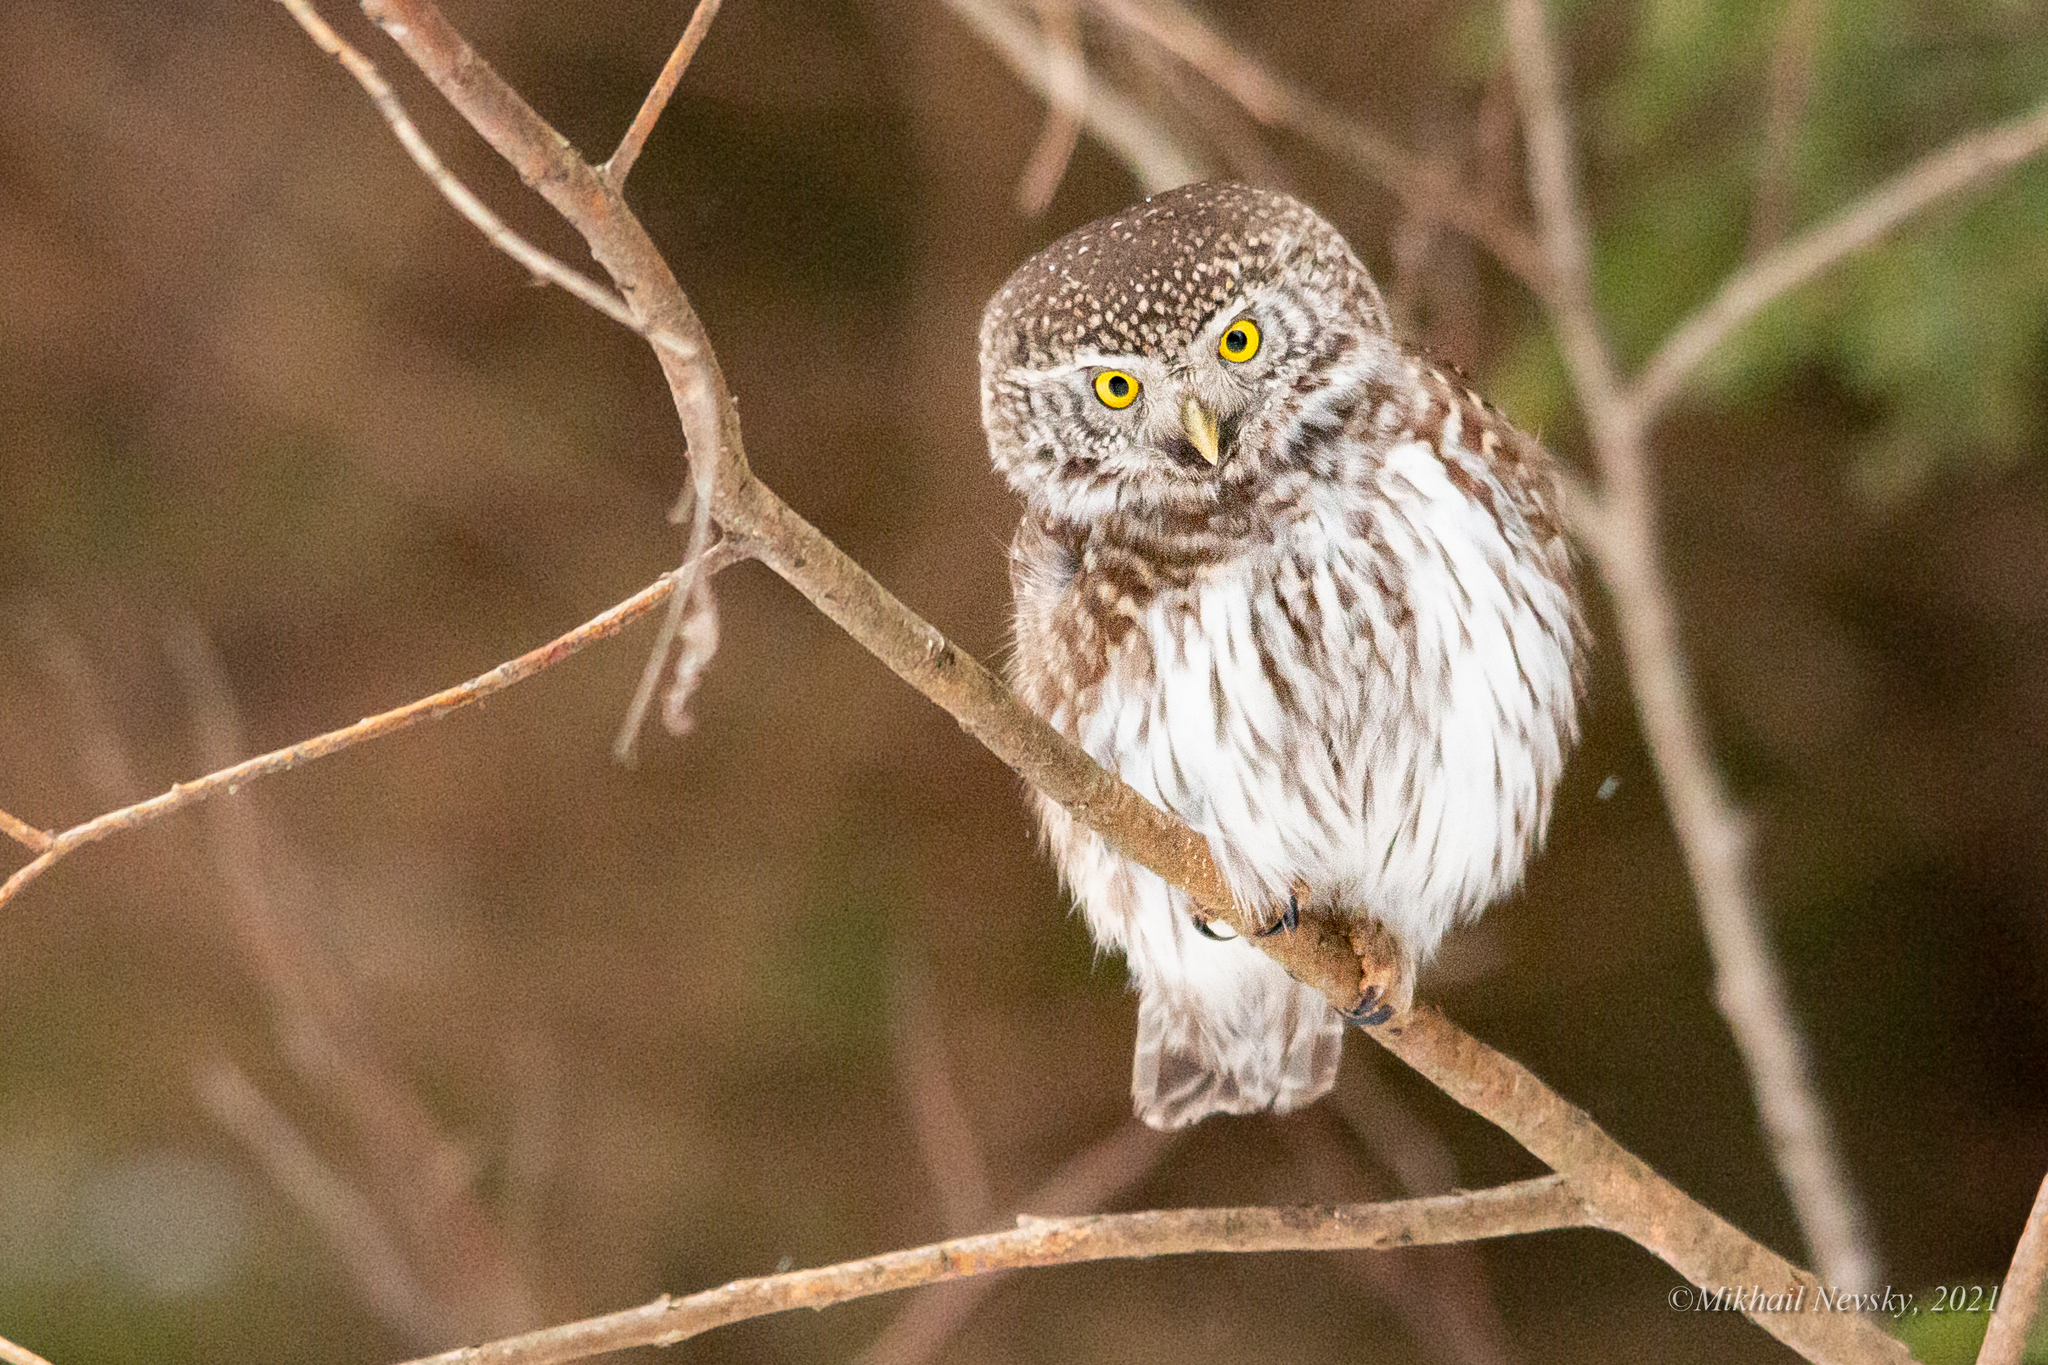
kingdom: Animalia
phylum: Chordata
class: Aves
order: Strigiformes
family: Strigidae
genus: Glaucidium
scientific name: Glaucidium passerinum
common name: Eurasian pygmy owl
